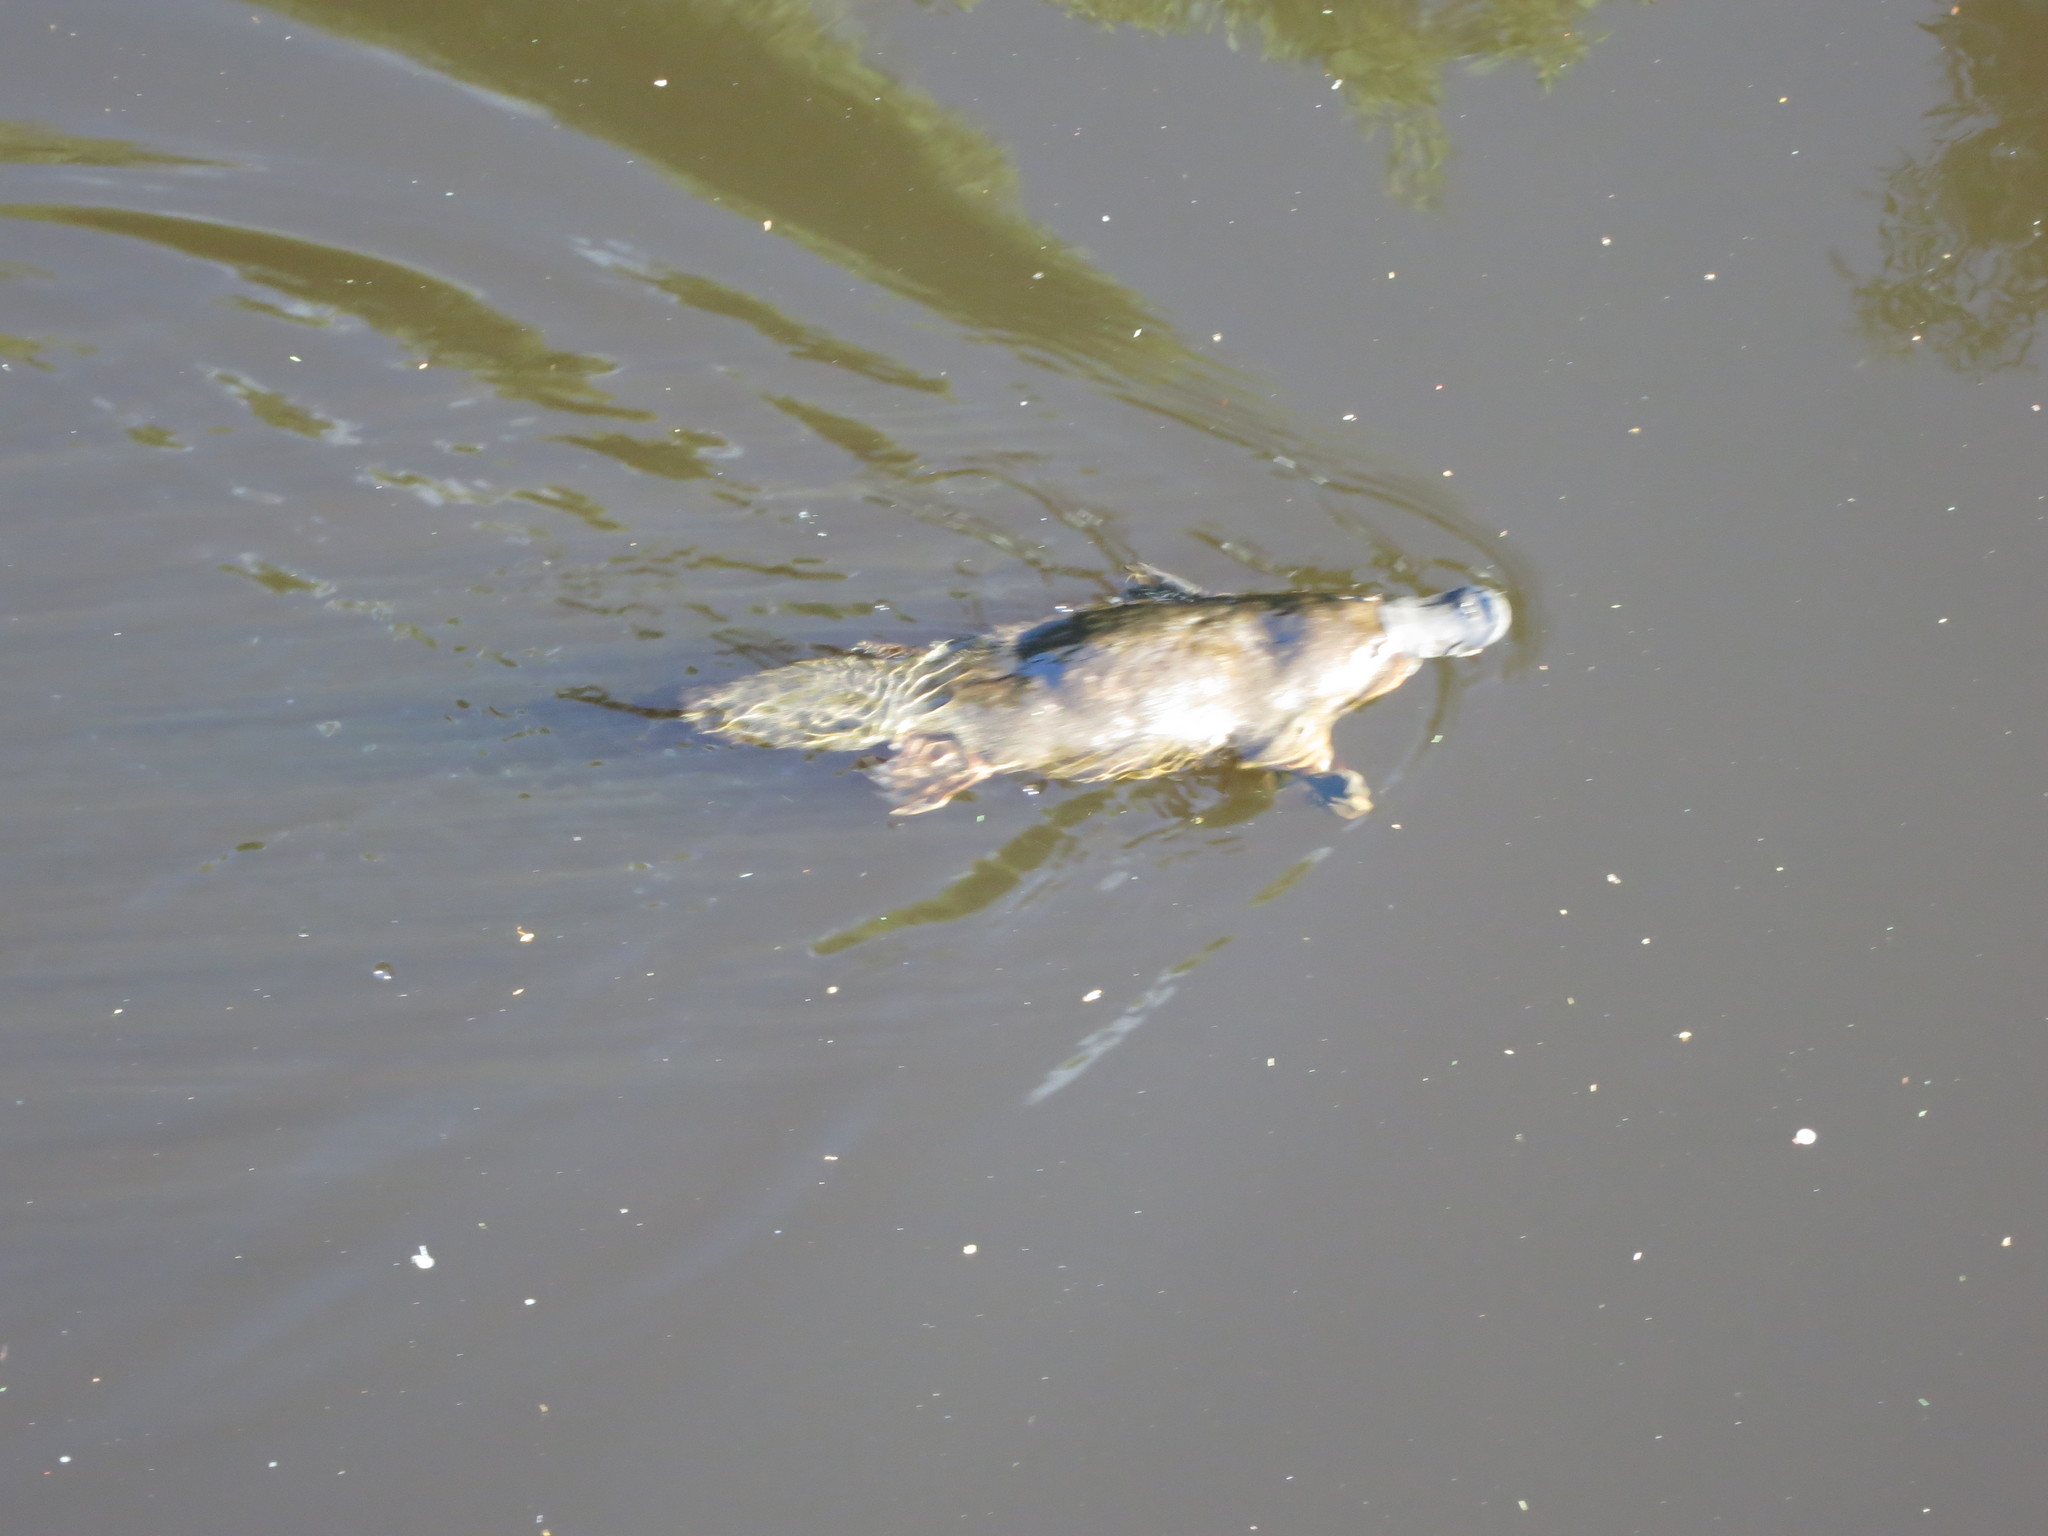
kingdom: Animalia
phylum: Chordata
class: Mammalia
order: Monotremata
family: Ornithorhynchidae
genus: Ornithorhynchus
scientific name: Ornithorhynchus anatinus
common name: Platypus
